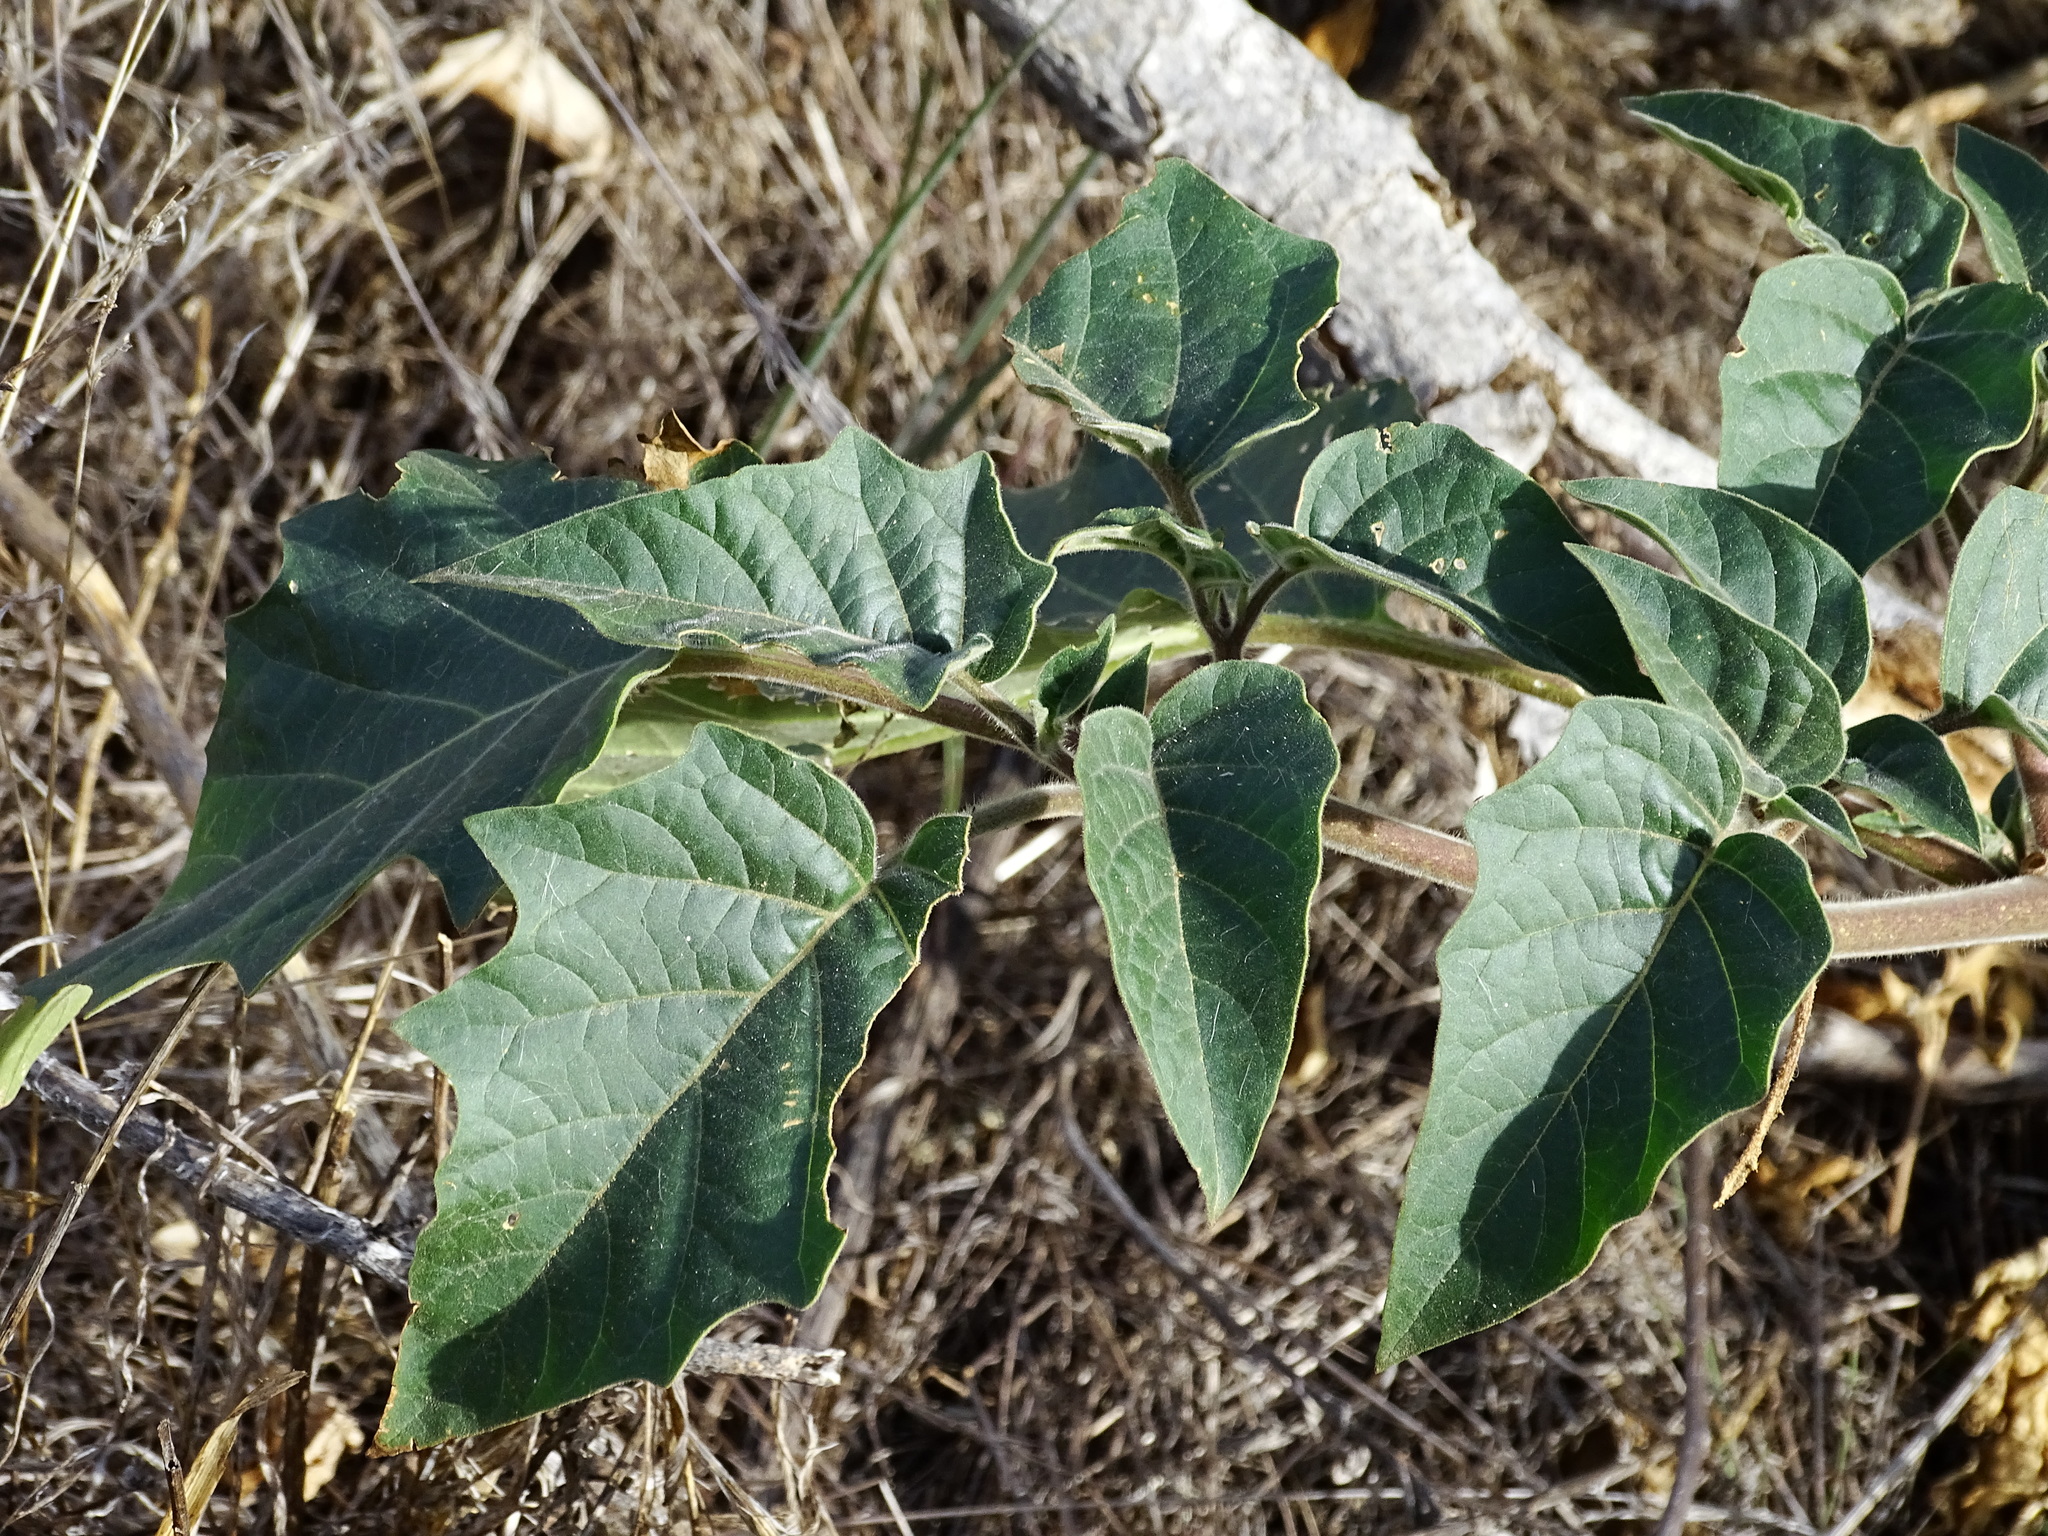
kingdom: Plantae
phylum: Tracheophyta
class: Magnoliopsida
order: Solanales
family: Solanaceae
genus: Datura
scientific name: Datura wrightii
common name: Sacred thorn-apple
